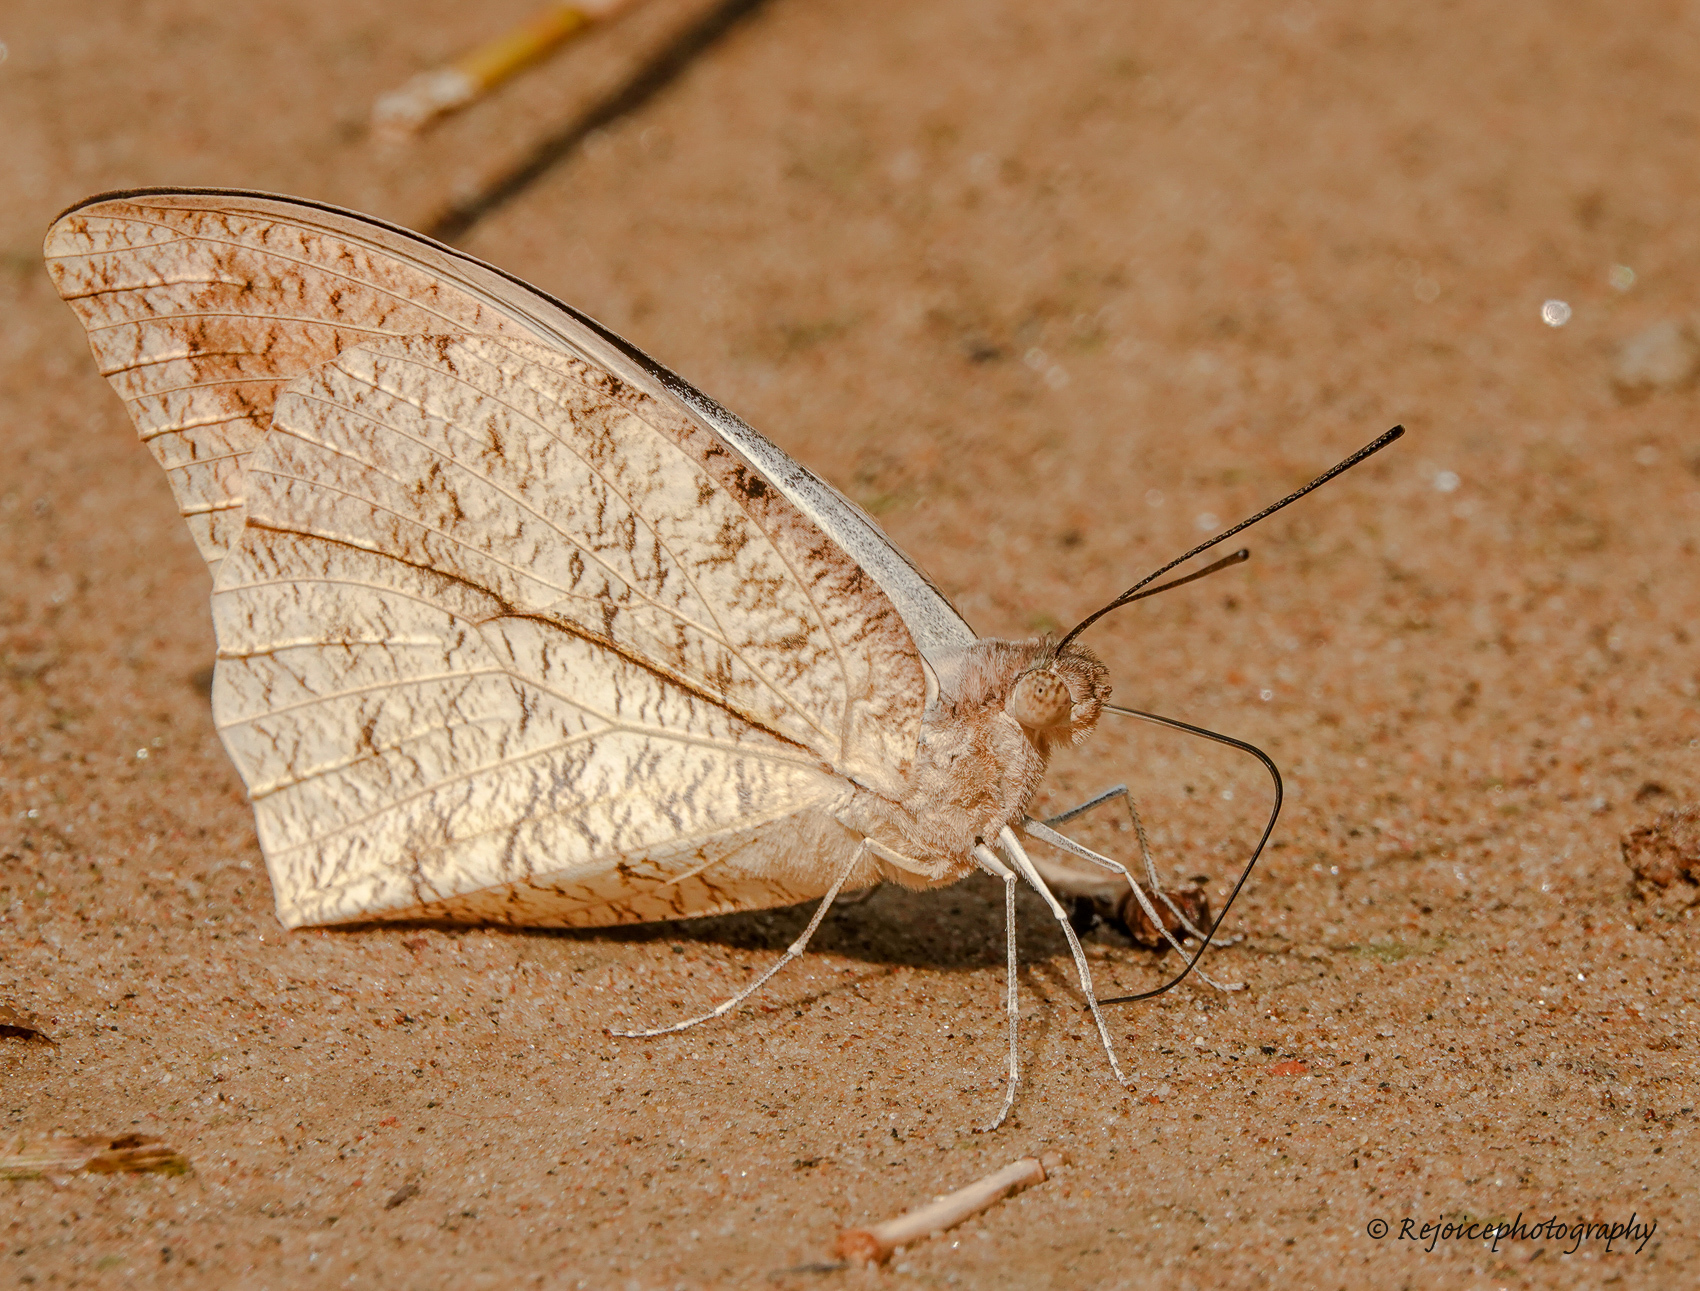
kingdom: Animalia
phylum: Arthropoda
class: Insecta
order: Lepidoptera
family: Pieridae
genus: Hebomoia
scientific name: Hebomoia glaucippe
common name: Great orange tip
